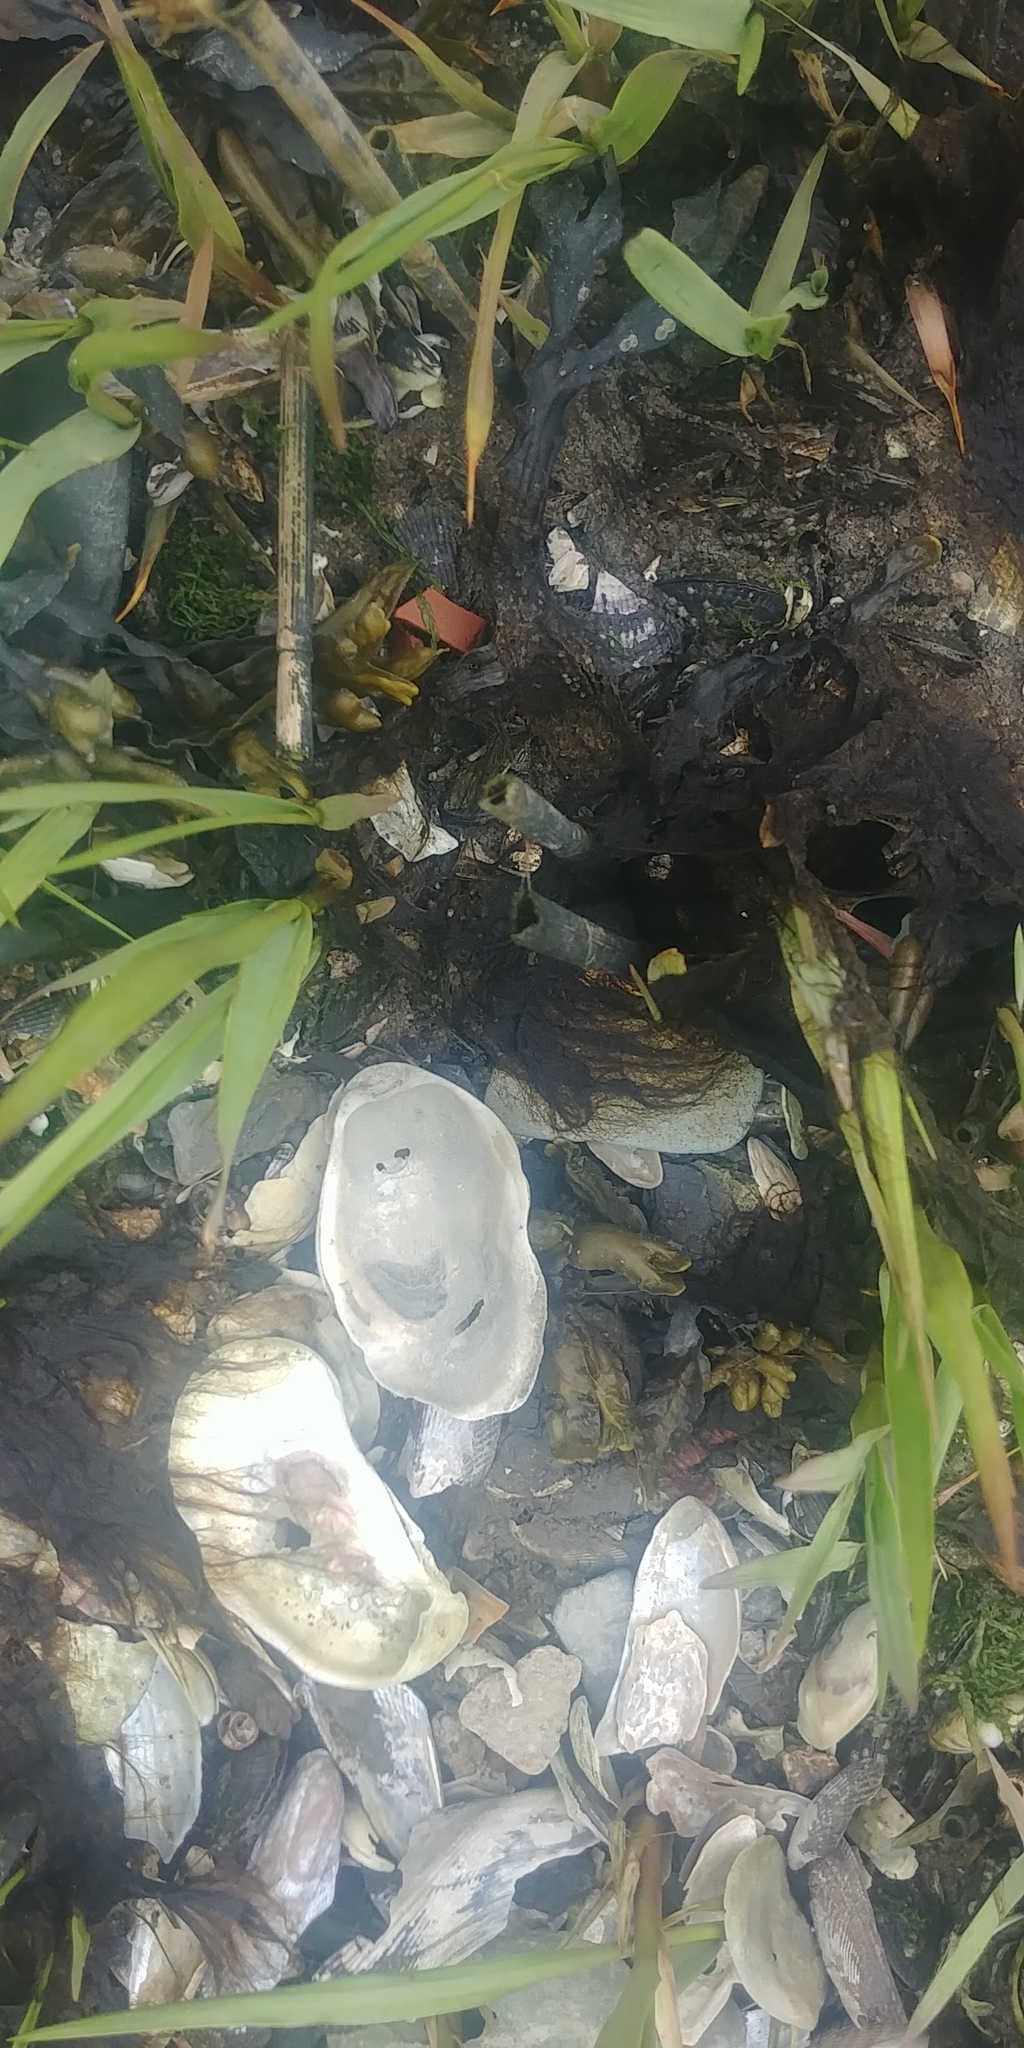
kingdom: Animalia
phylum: Mollusca
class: Bivalvia
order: Ostreida
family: Ostreidae
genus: Crassostrea
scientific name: Crassostrea virginica
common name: American oyster
